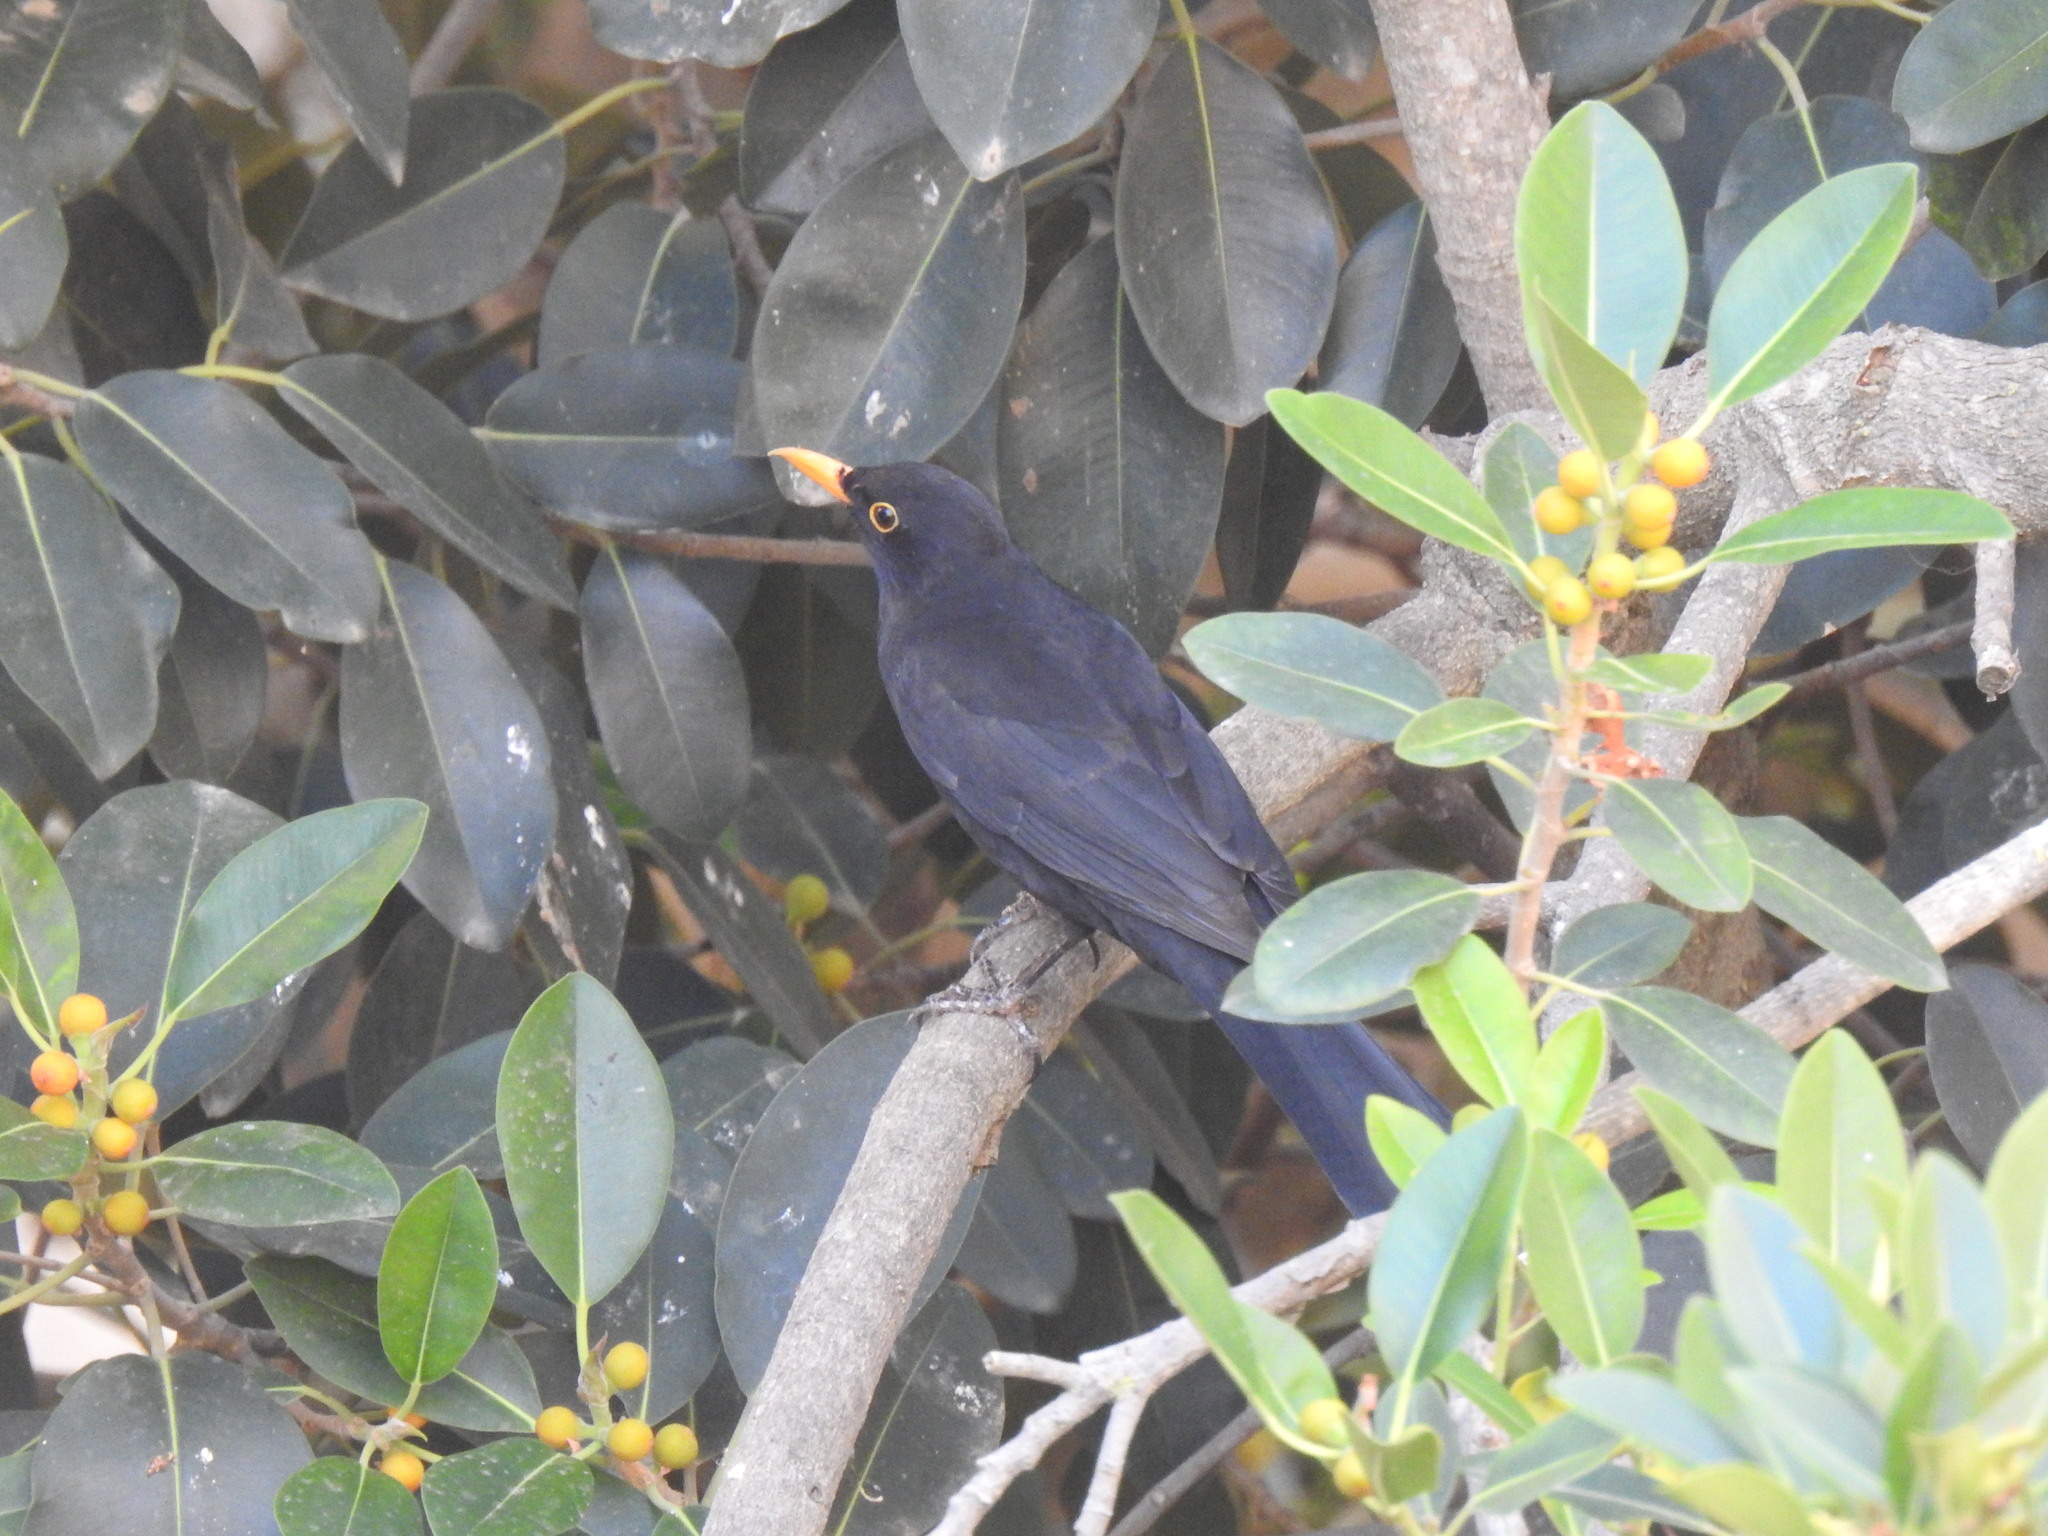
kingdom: Animalia
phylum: Chordata
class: Aves
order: Passeriformes
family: Turdidae
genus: Turdus
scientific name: Turdus merula
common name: Common blackbird
